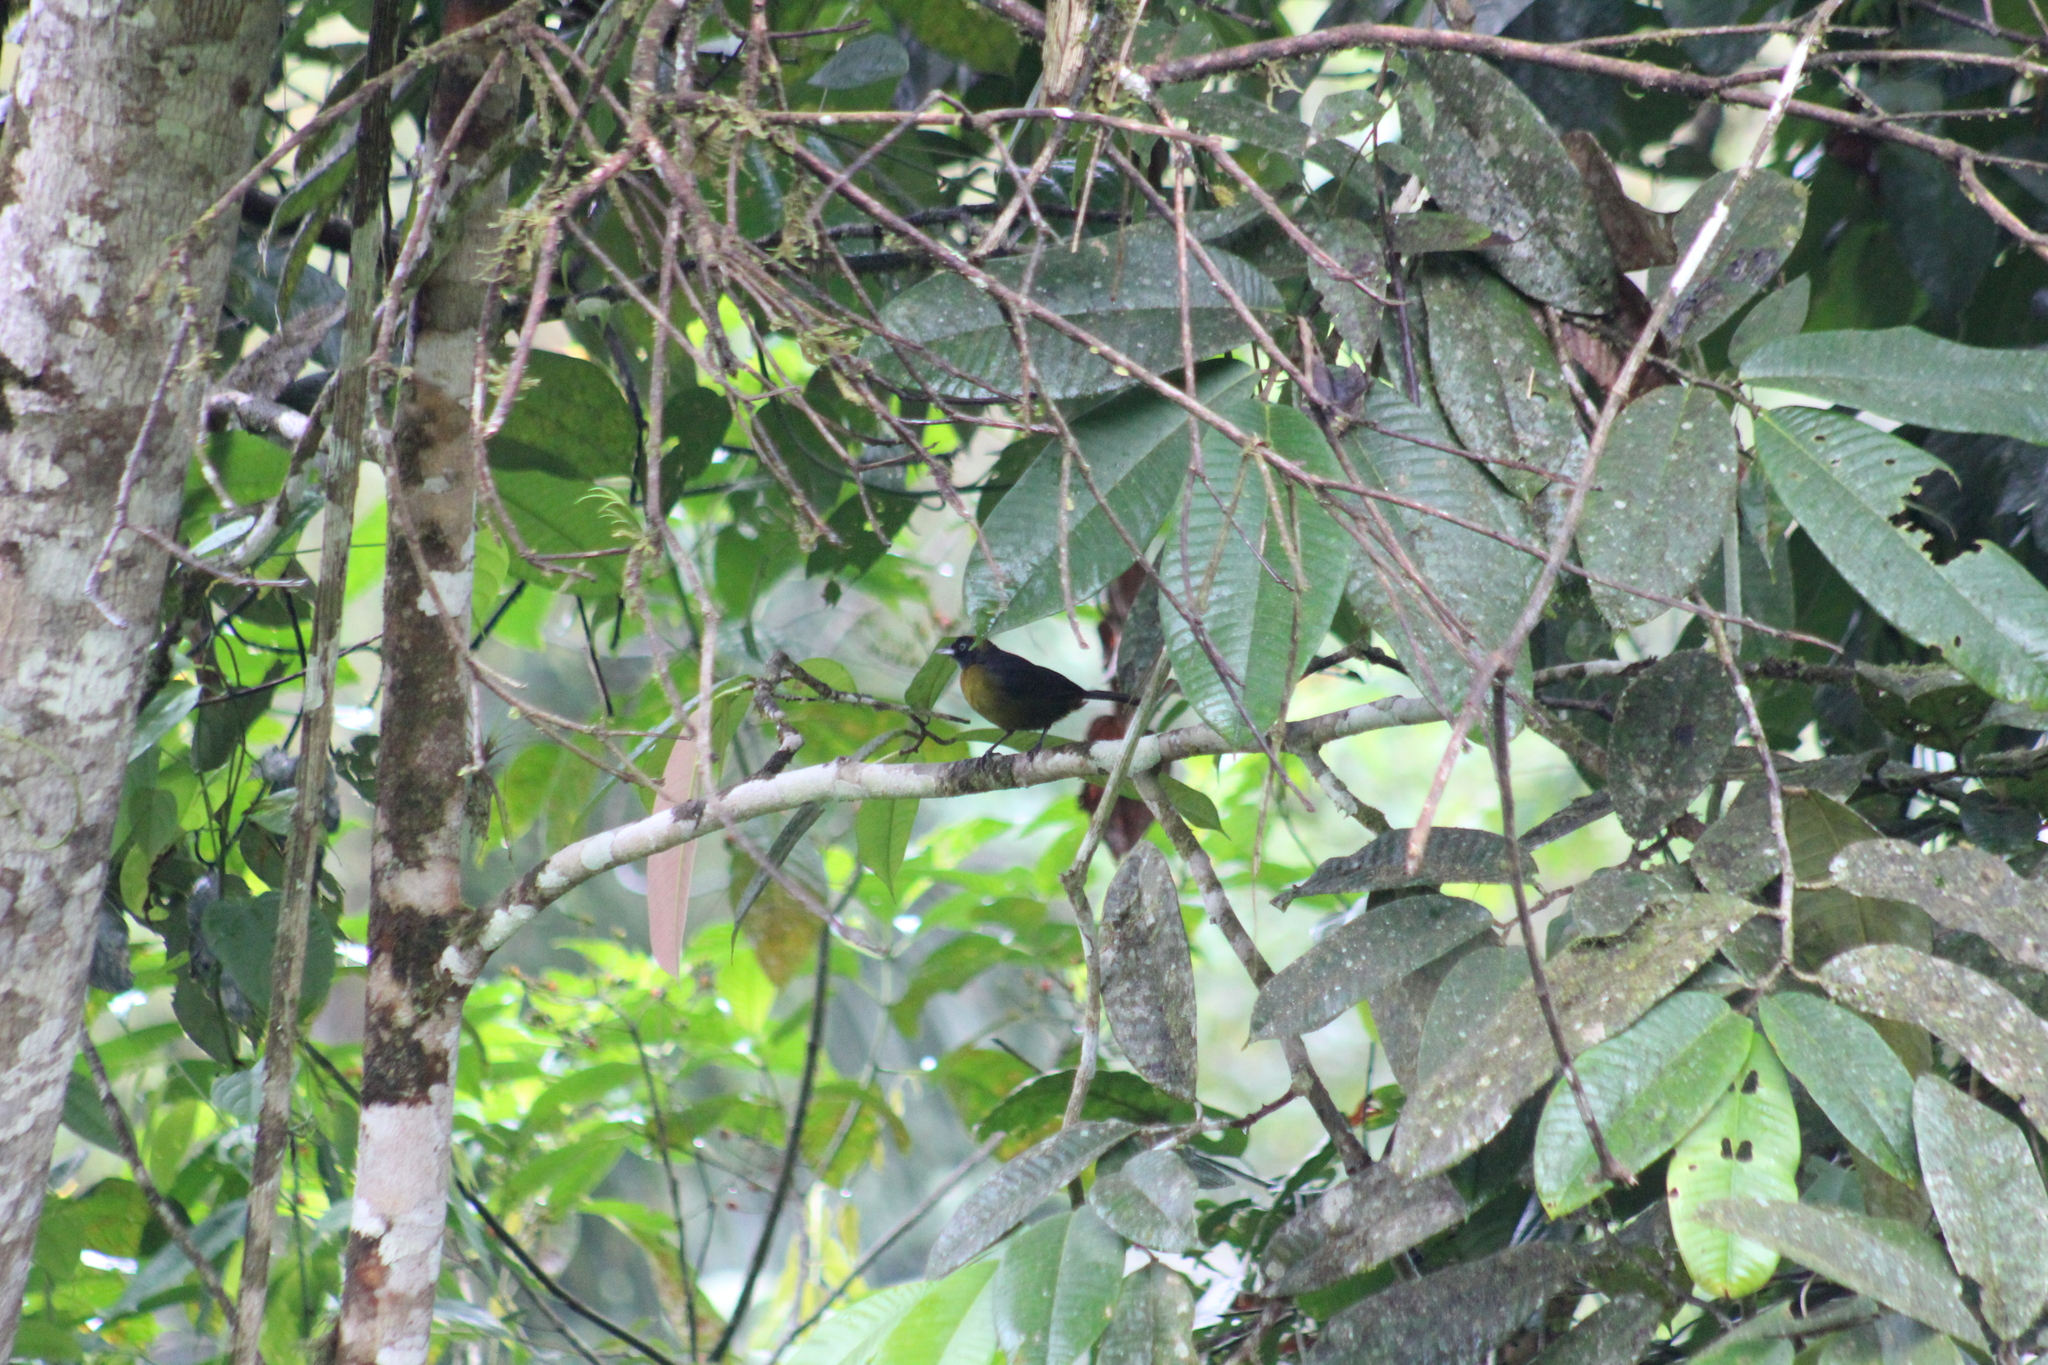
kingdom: Animalia
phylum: Chordata
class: Aves
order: Passeriformes
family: Mitrospingidae
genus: Mitrospingus
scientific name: Mitrospingus cassinii
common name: Dusky-faced tanager
